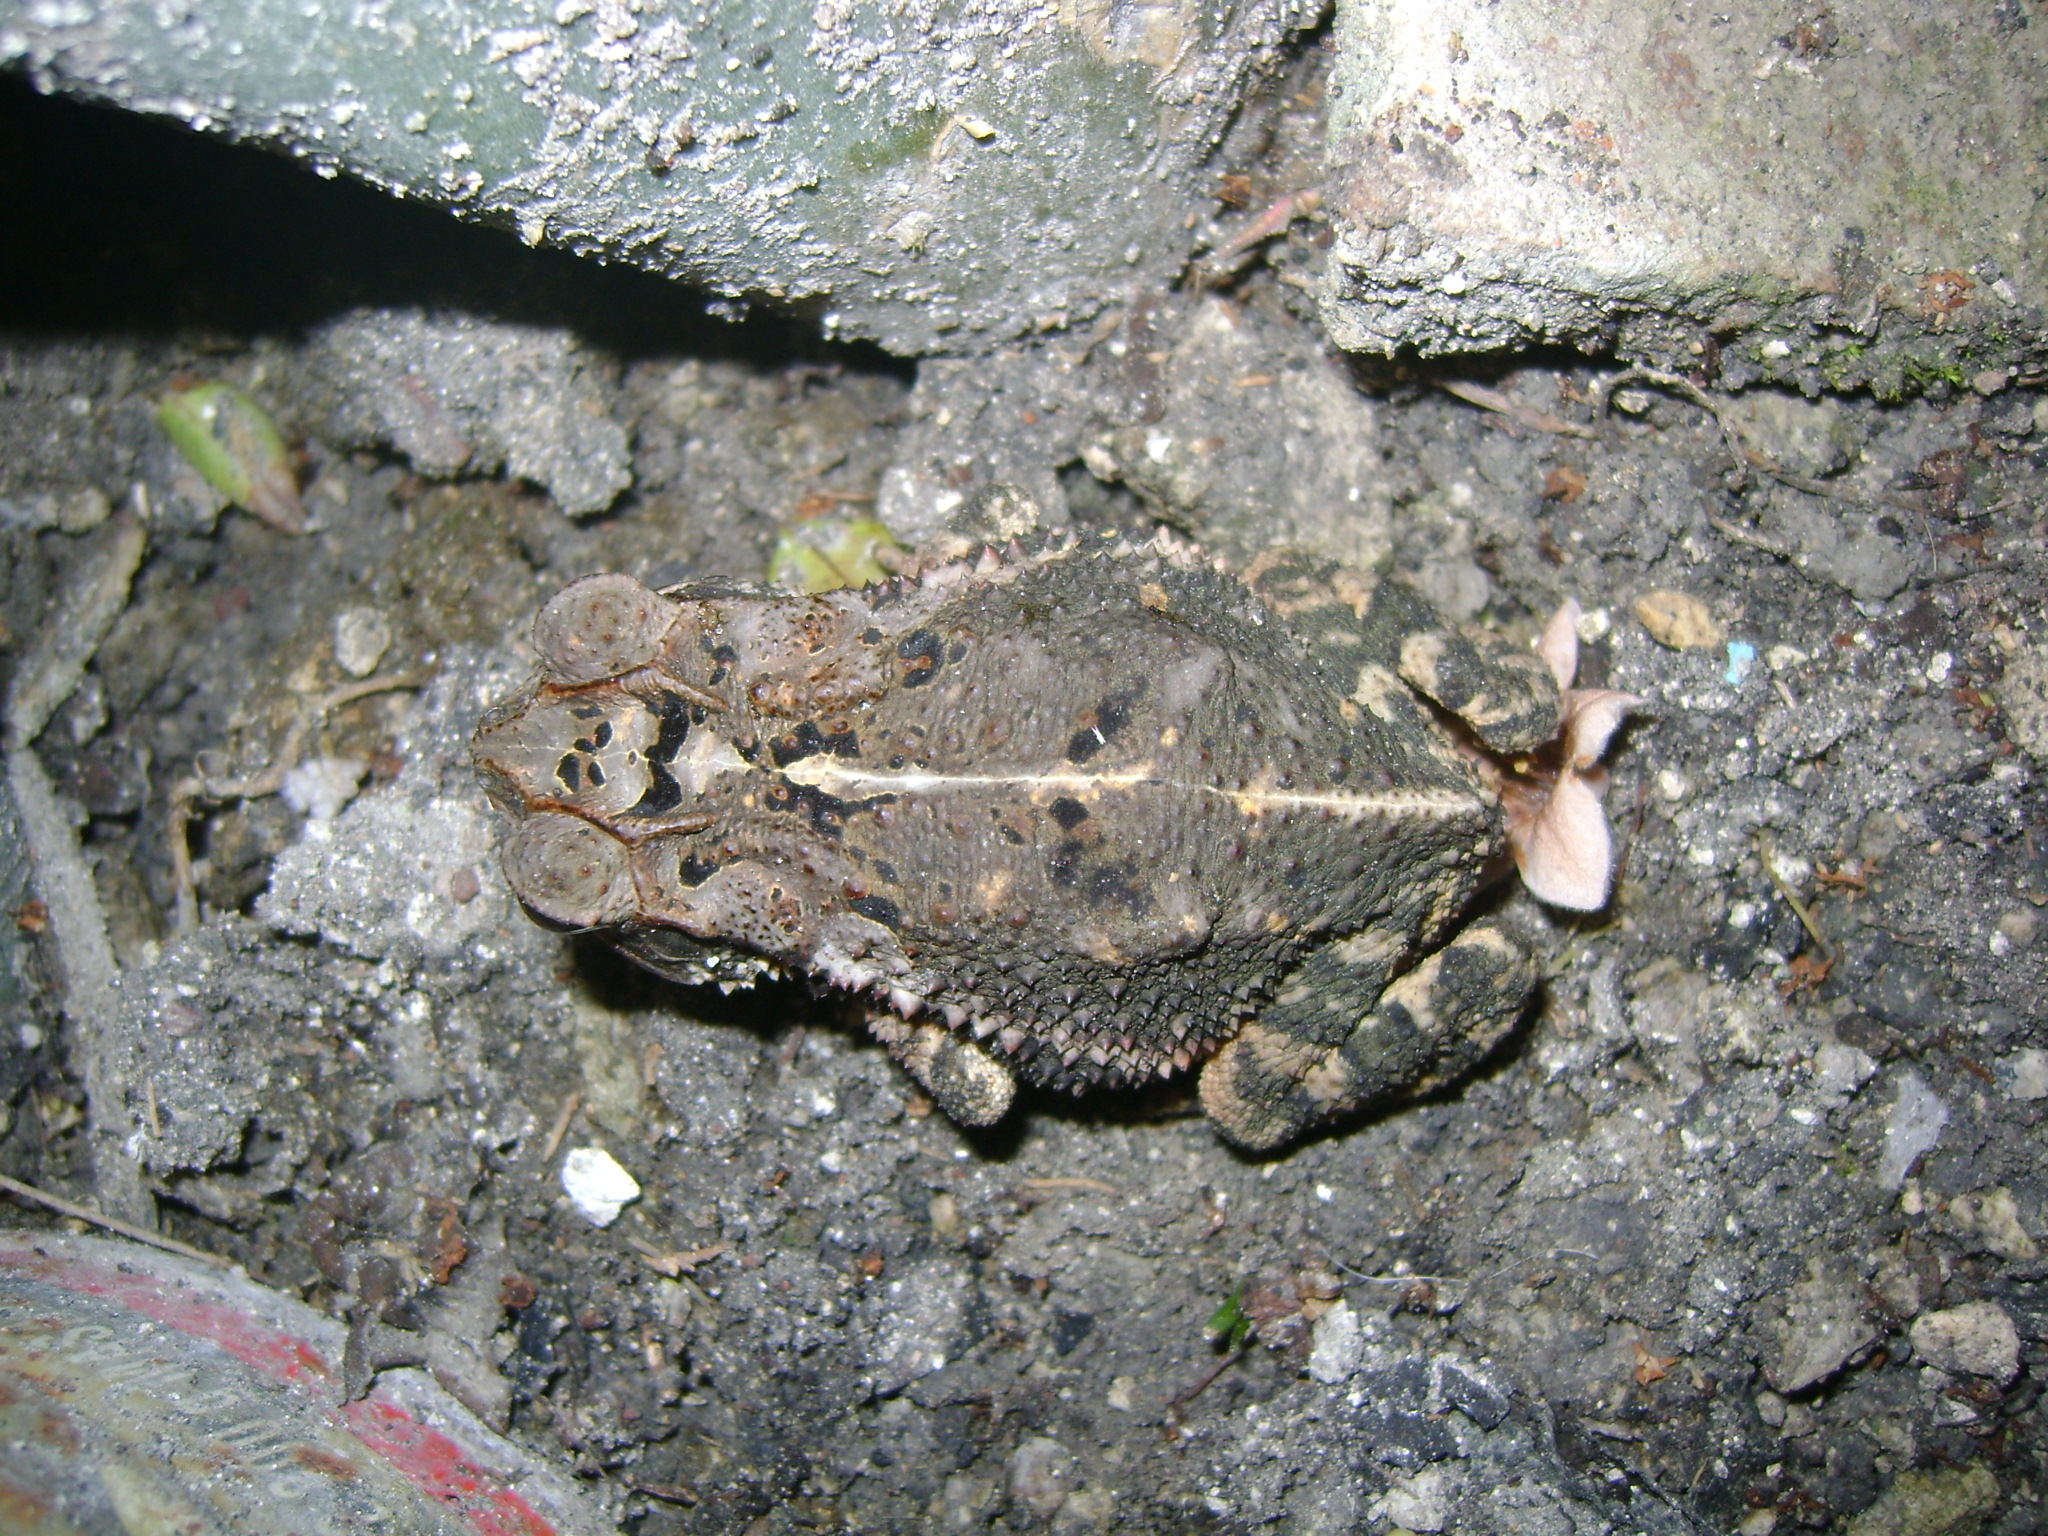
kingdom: Animalia
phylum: Chordata
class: Amphibia
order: Anura
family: Bufonidae
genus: Incilius
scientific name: Incilius valliceps
